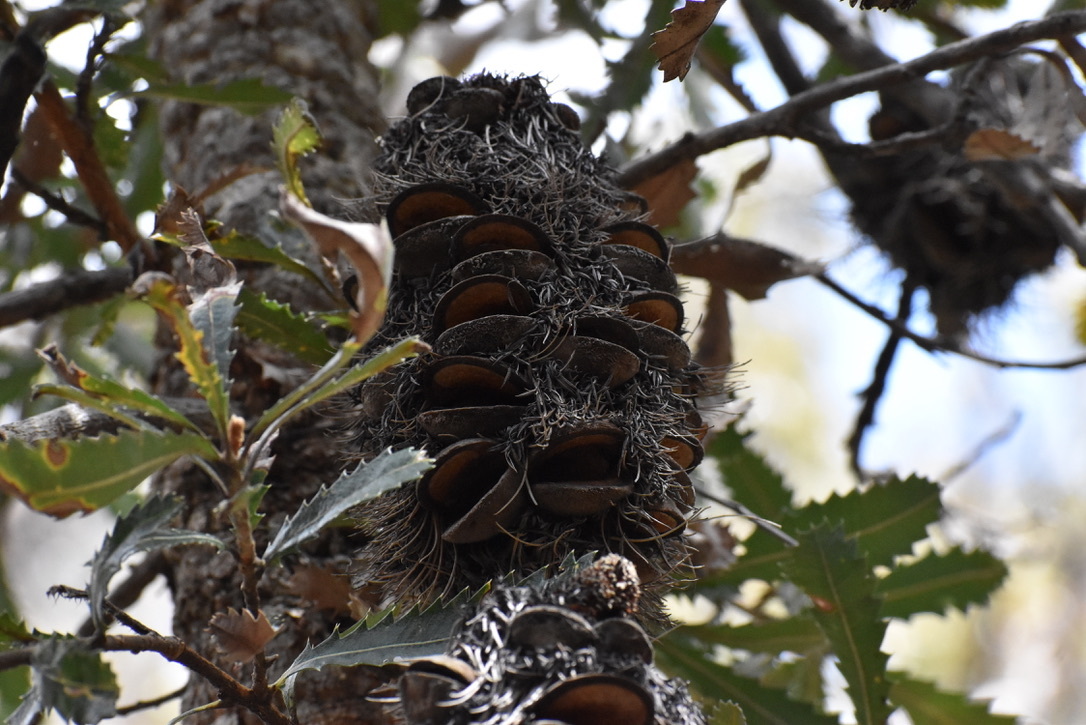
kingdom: Plantae
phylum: Tracheophyta
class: Magnoliopsida
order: Proteales
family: Proteaceae
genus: Banksia
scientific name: Banksia serrata
